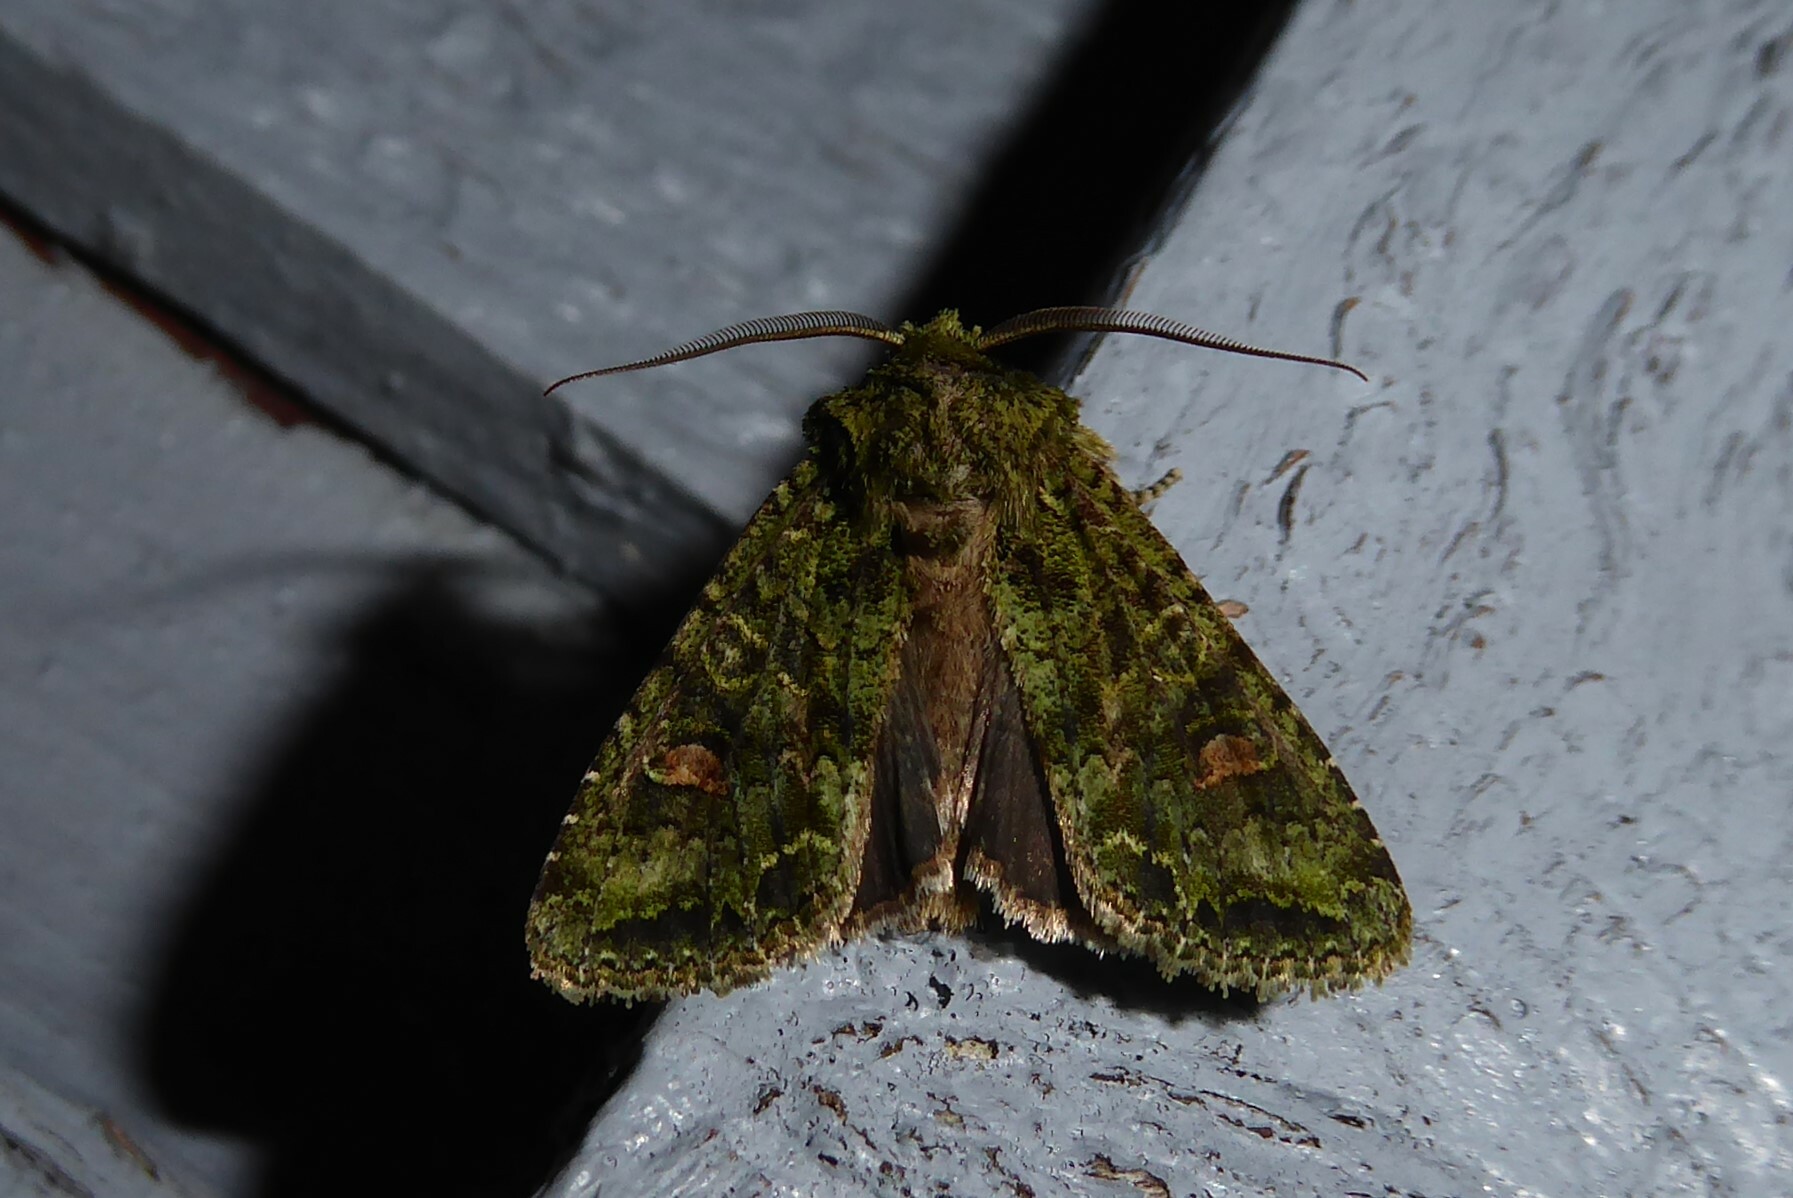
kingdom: Animalia
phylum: Arthropoda
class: Insecta
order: Lepidoptera
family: Noctuidae
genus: Ichneutica
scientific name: Ichneutica
